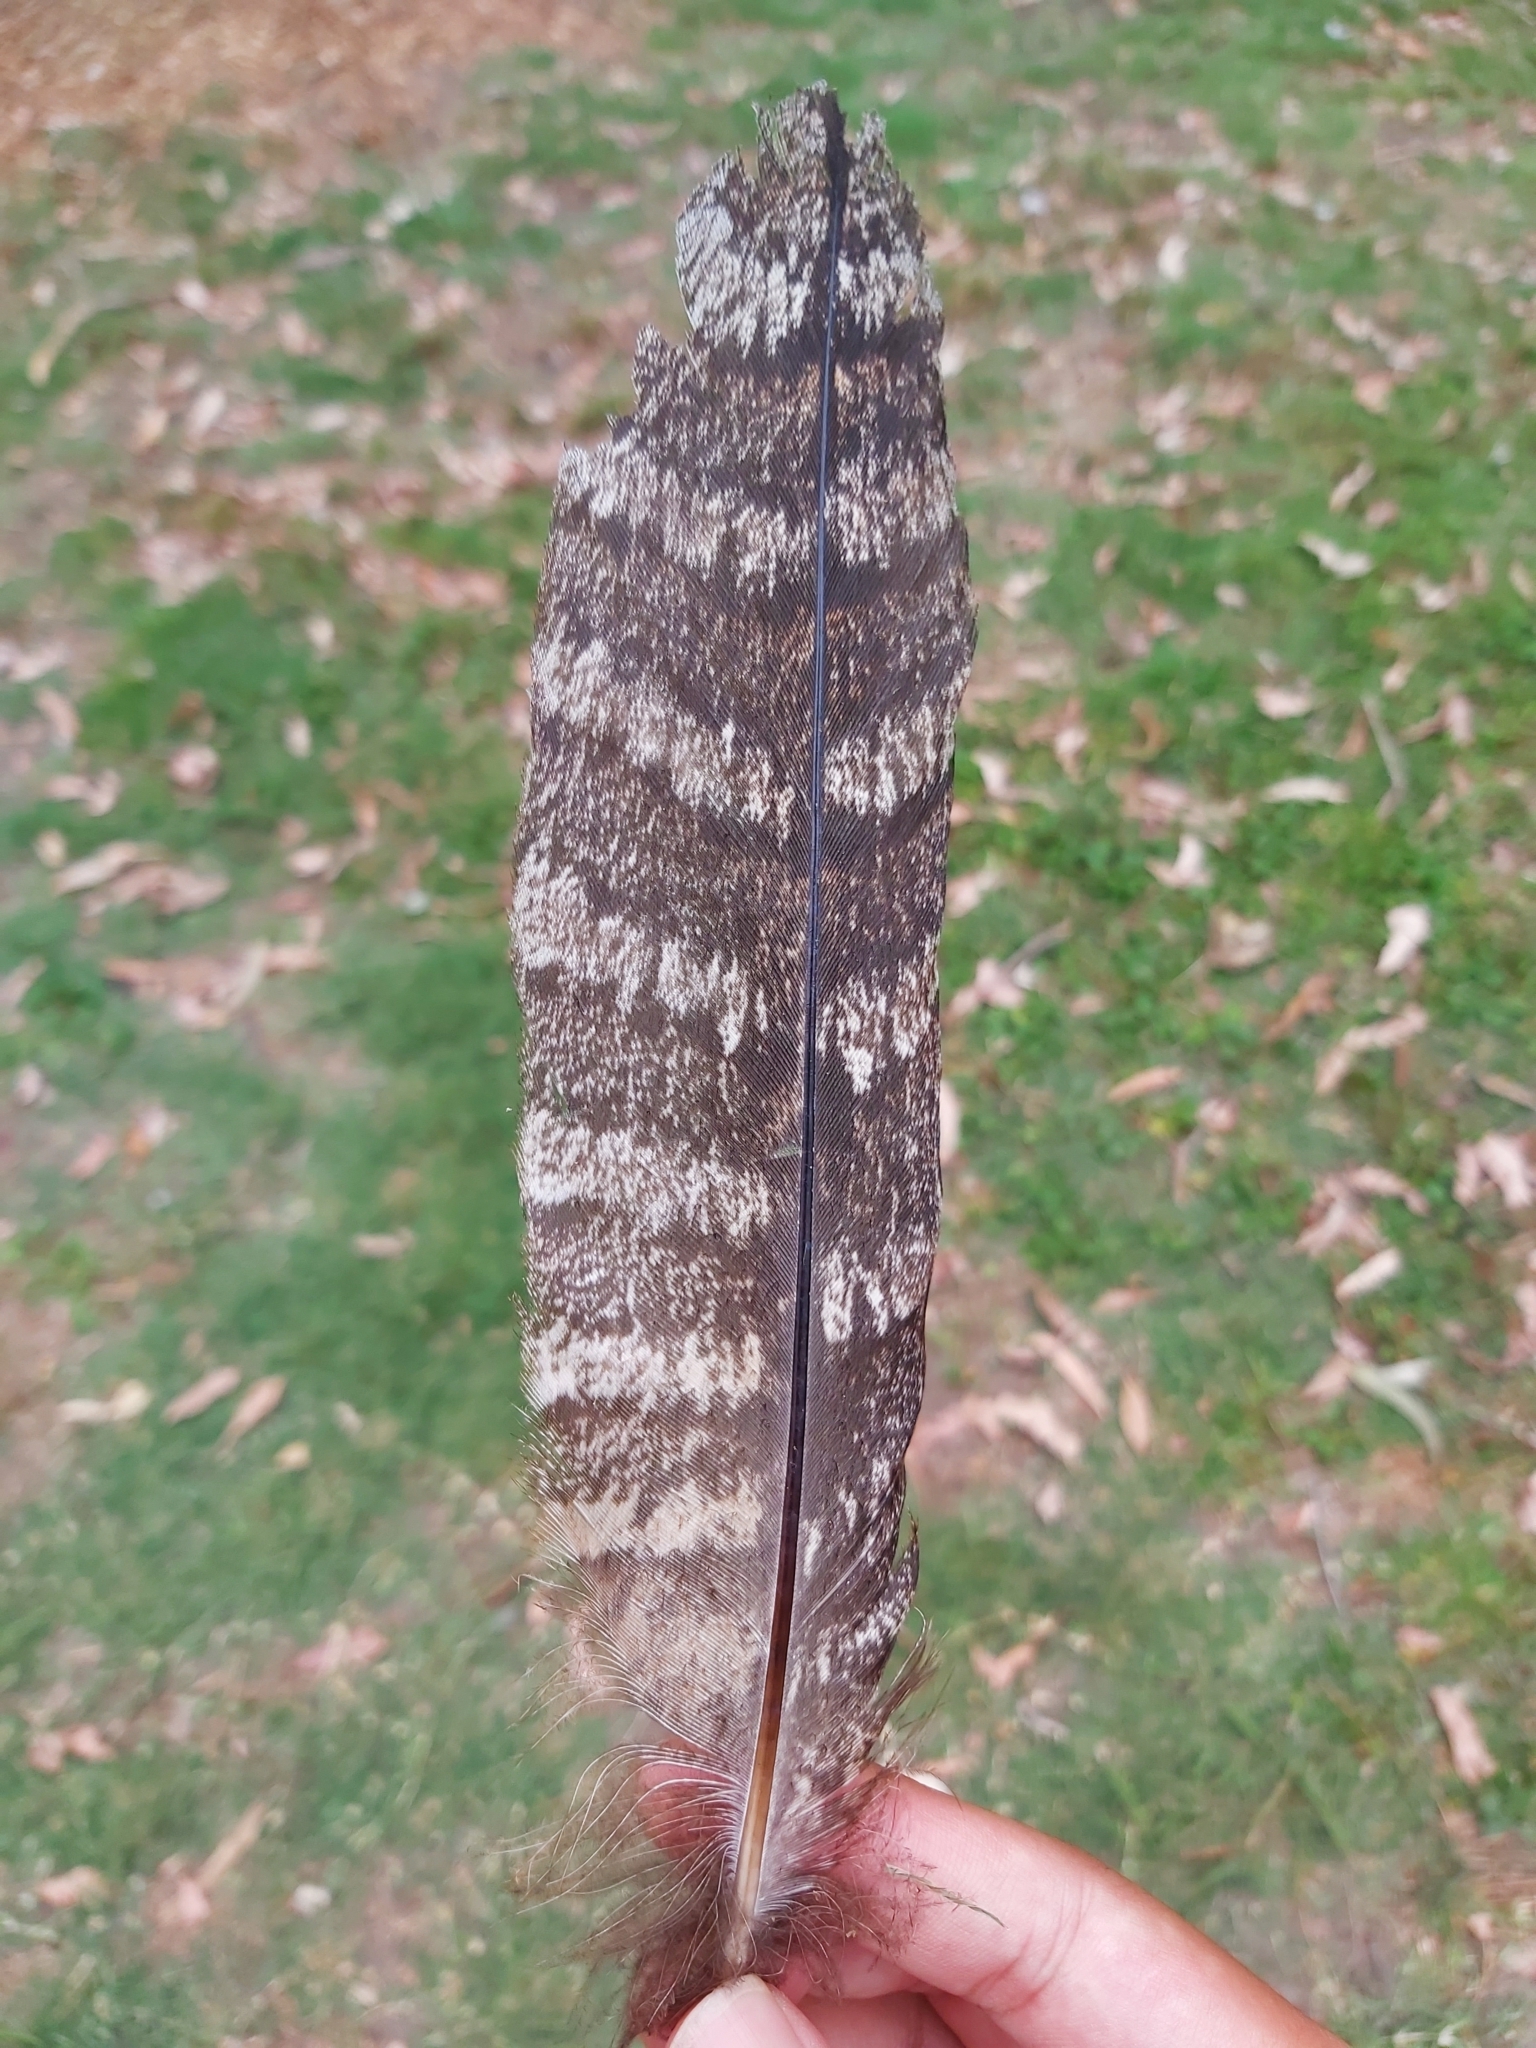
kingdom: Animalia
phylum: Chordata
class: Aves
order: Caprimulgiformes
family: Podargidae
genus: Podargus
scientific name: Podargus strigoides
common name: Tawny frogmouth
